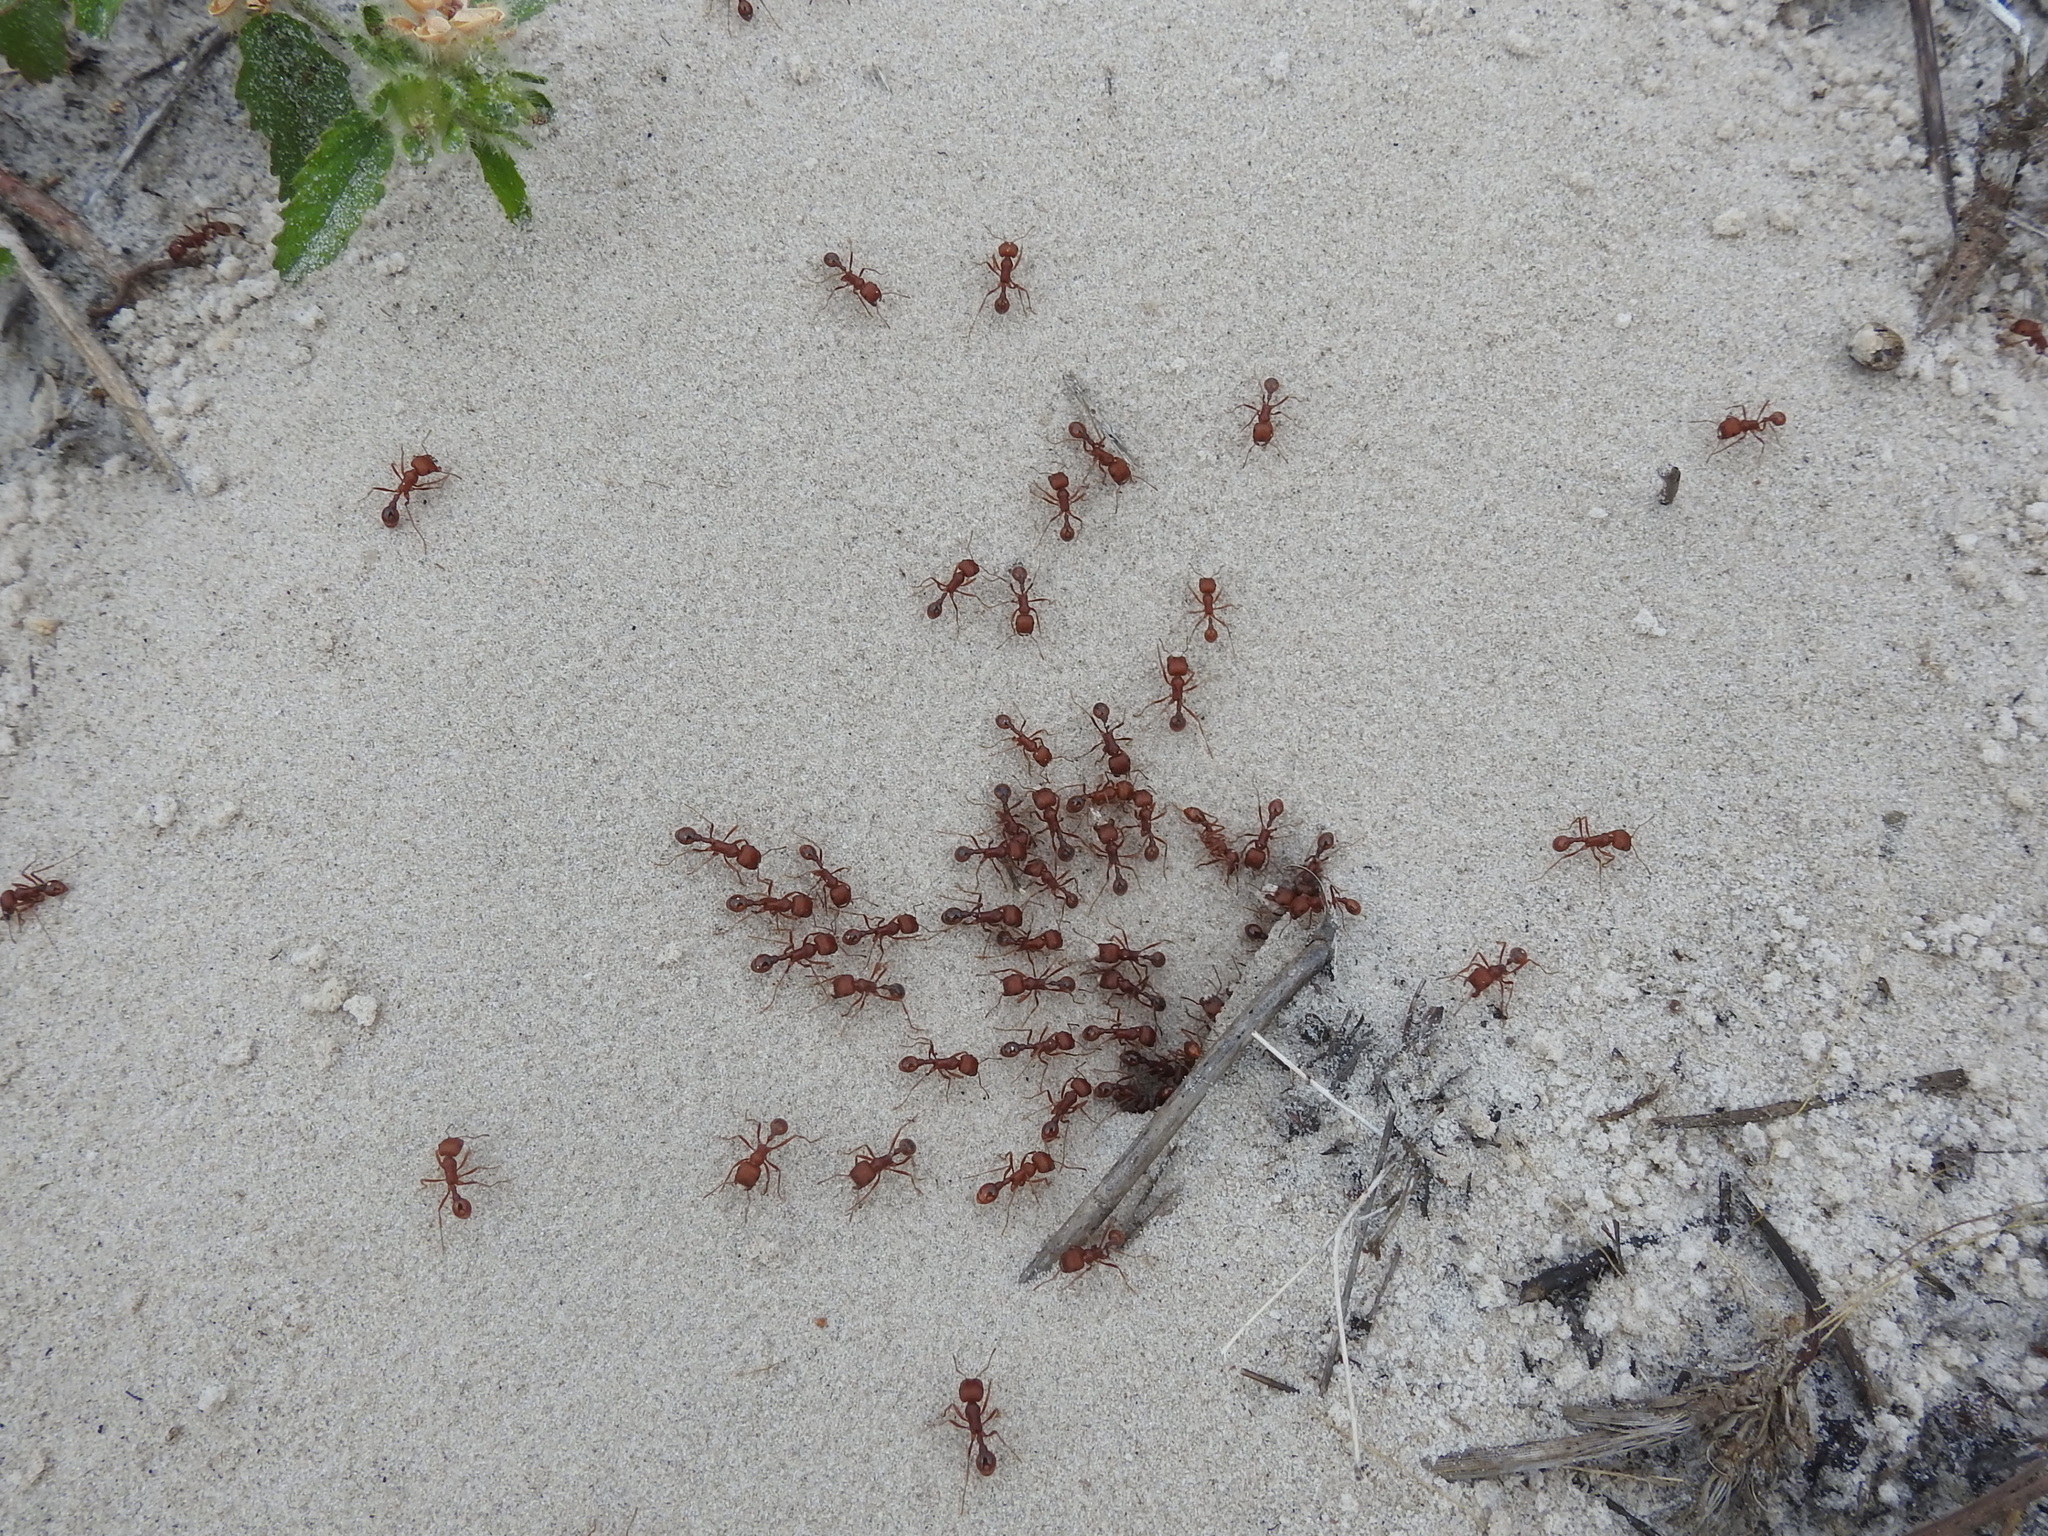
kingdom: Animalia
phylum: Arthropoda
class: Insecta
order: Hymenoptera
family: Formicidae
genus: Pogonomyrmex
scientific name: Pogonomyrmex comanche
